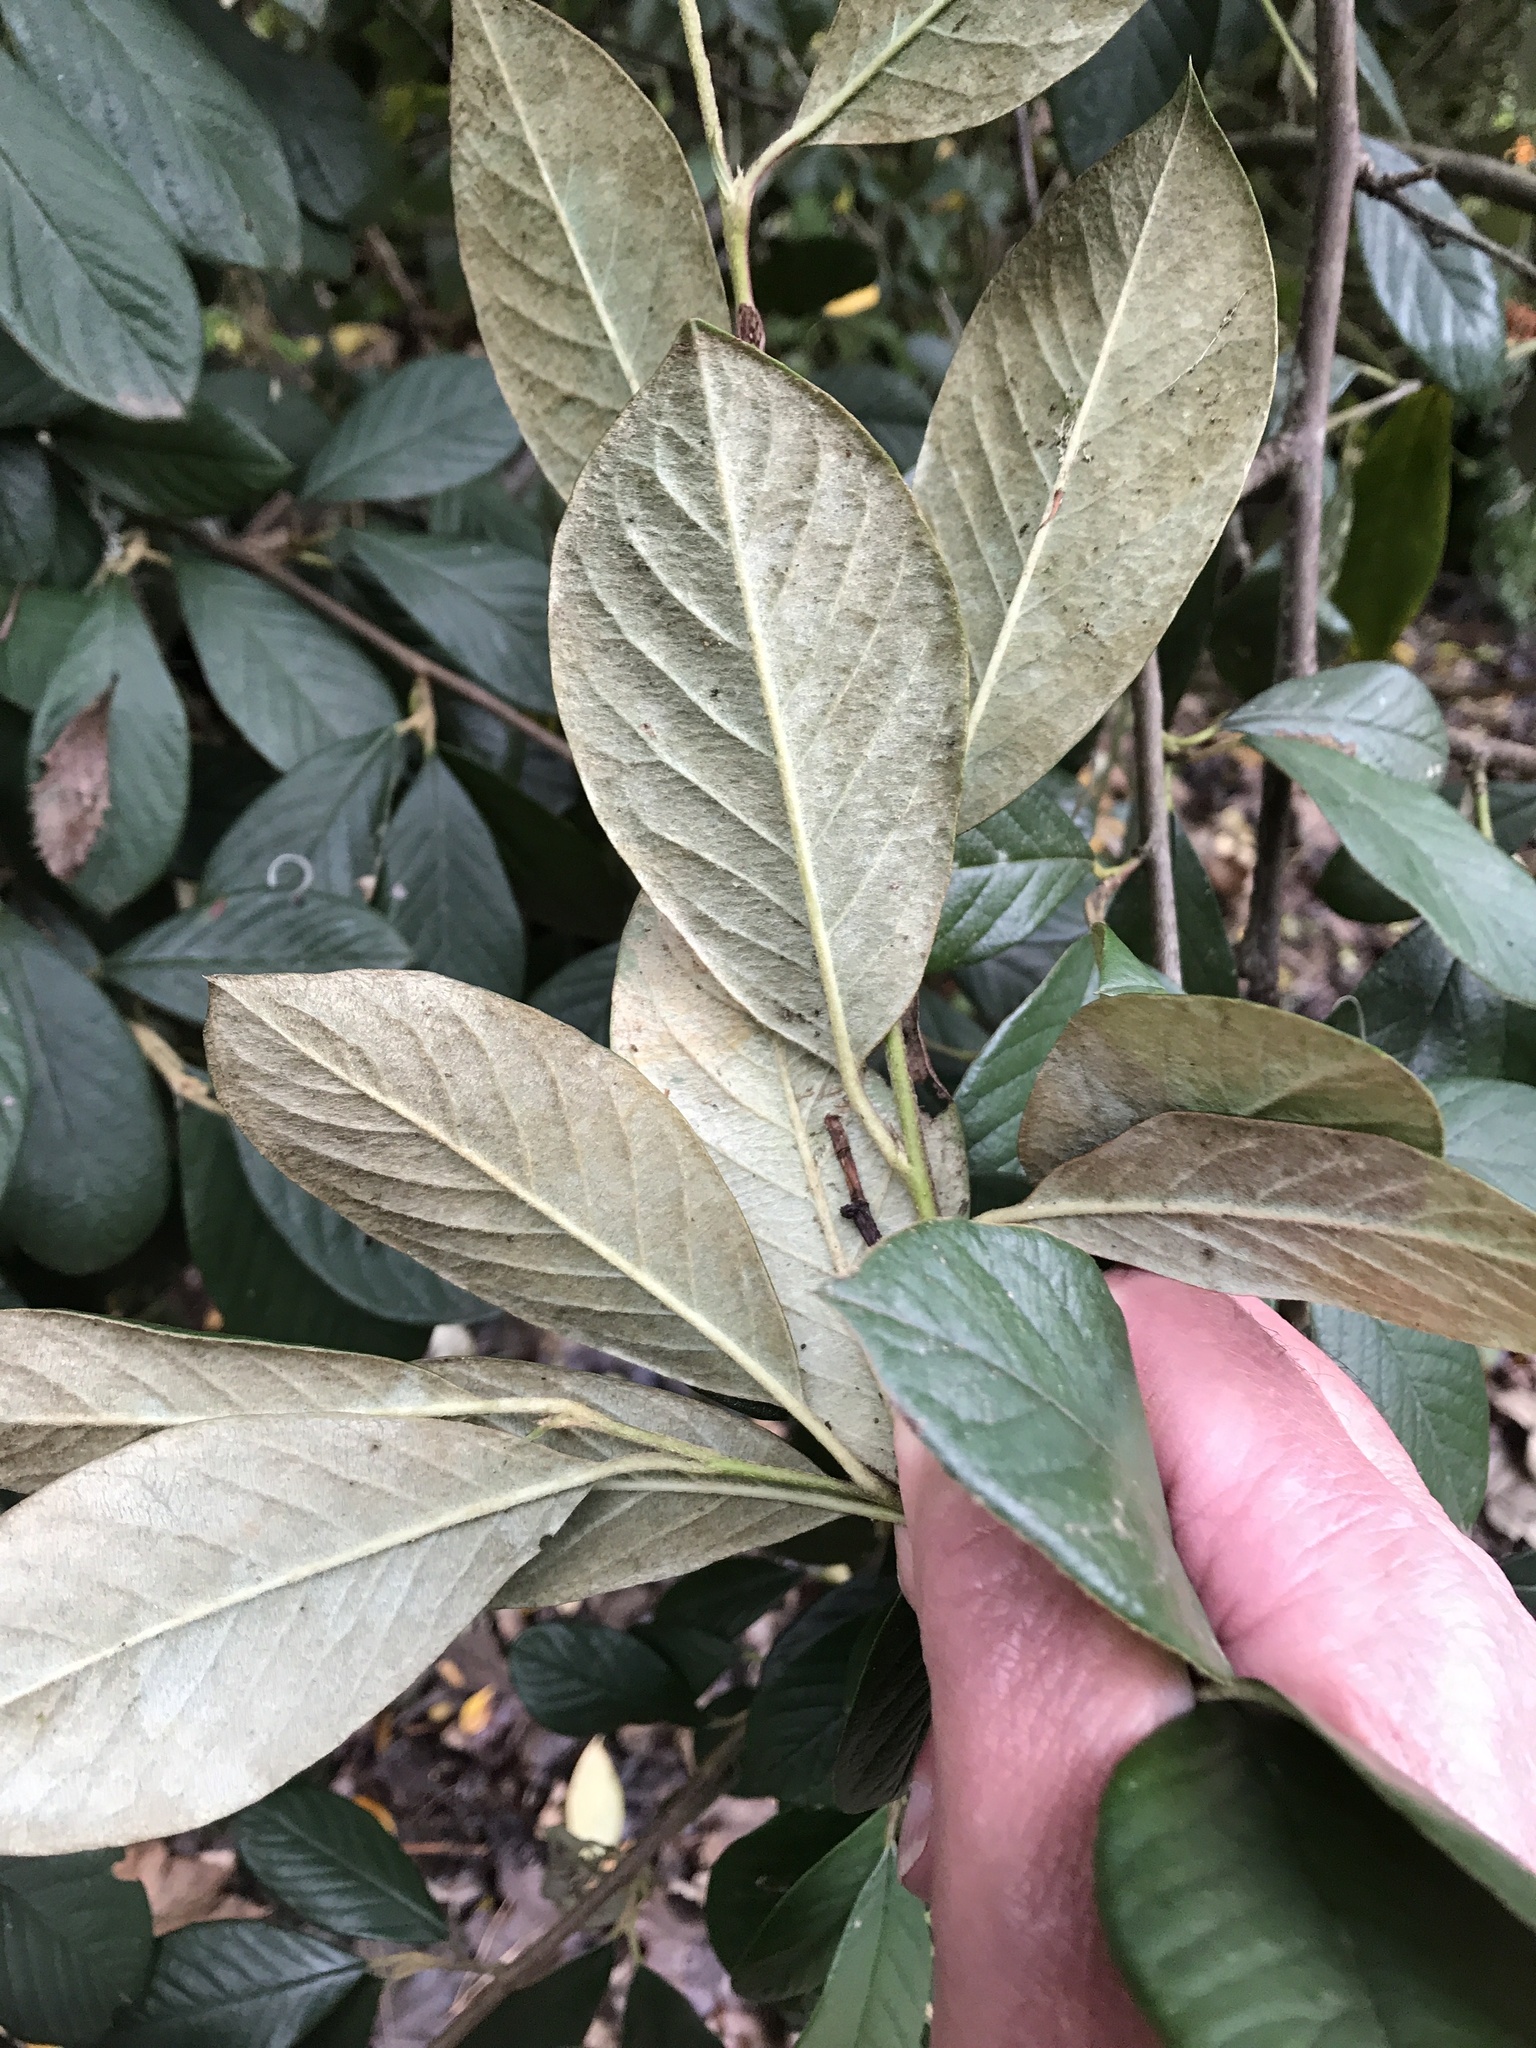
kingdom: Plantae
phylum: Tracheophyta
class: Magnoliopsida
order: Rosales
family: Rosaceae
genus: Cotoneaster
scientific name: Cotoneaster coriaceus
